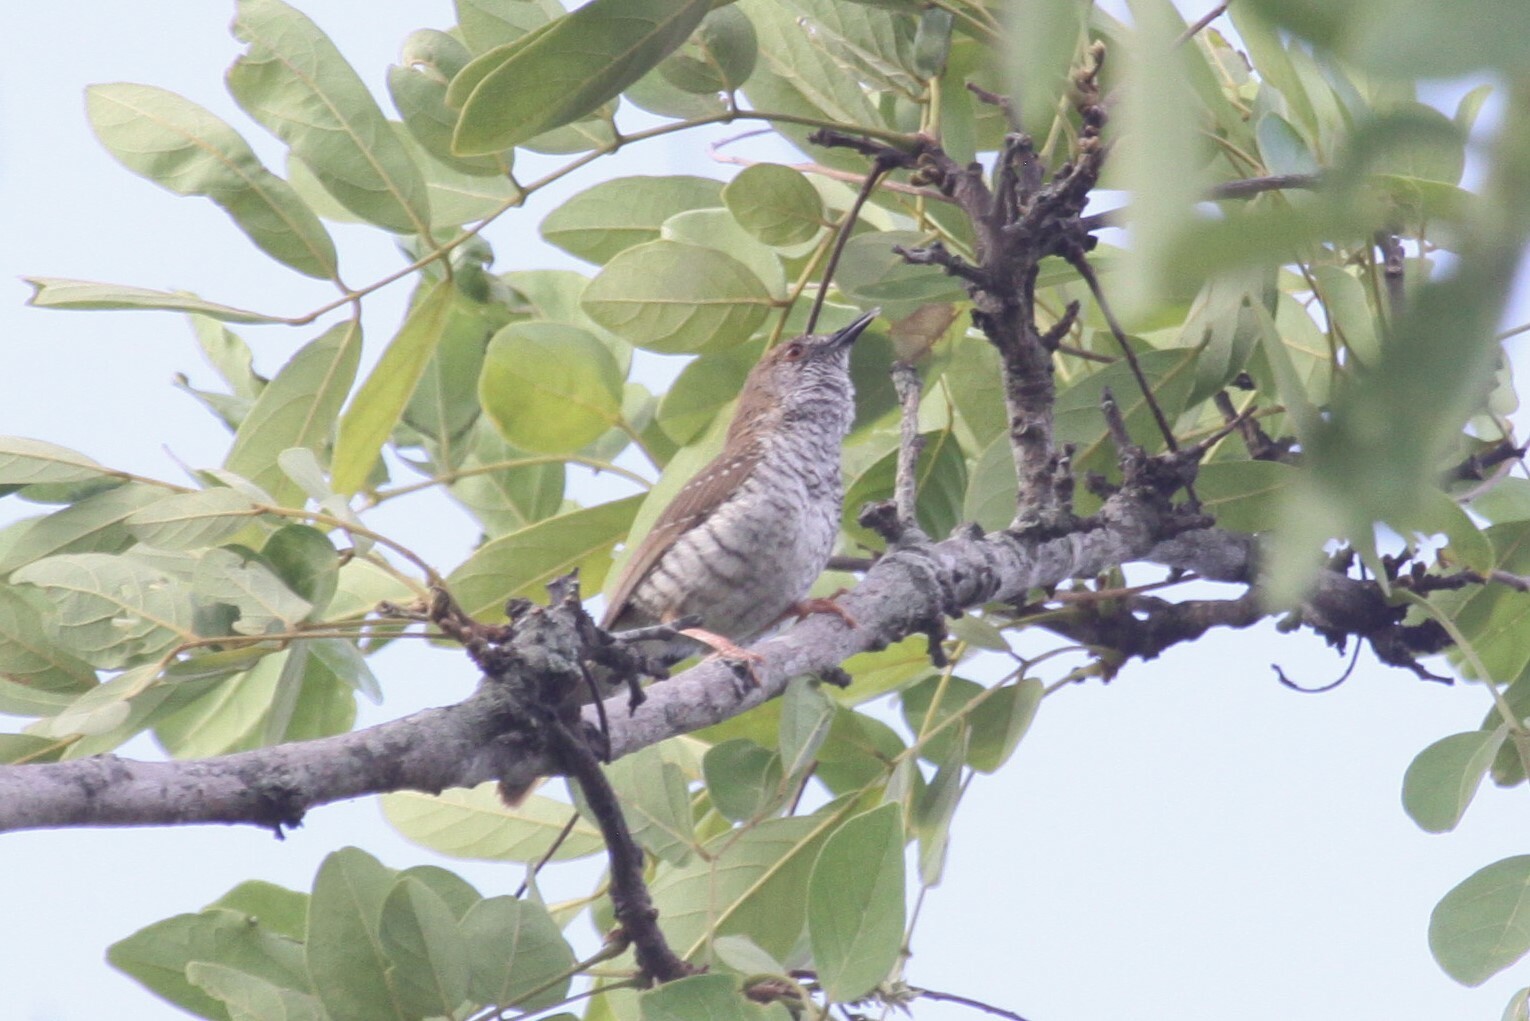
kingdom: Animalia
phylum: Chordata
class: Aves
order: Passeriformes
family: Cisticolidae
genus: Calamonastes
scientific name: Calamonastes stierlingi
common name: Stierling's wren-warbler
